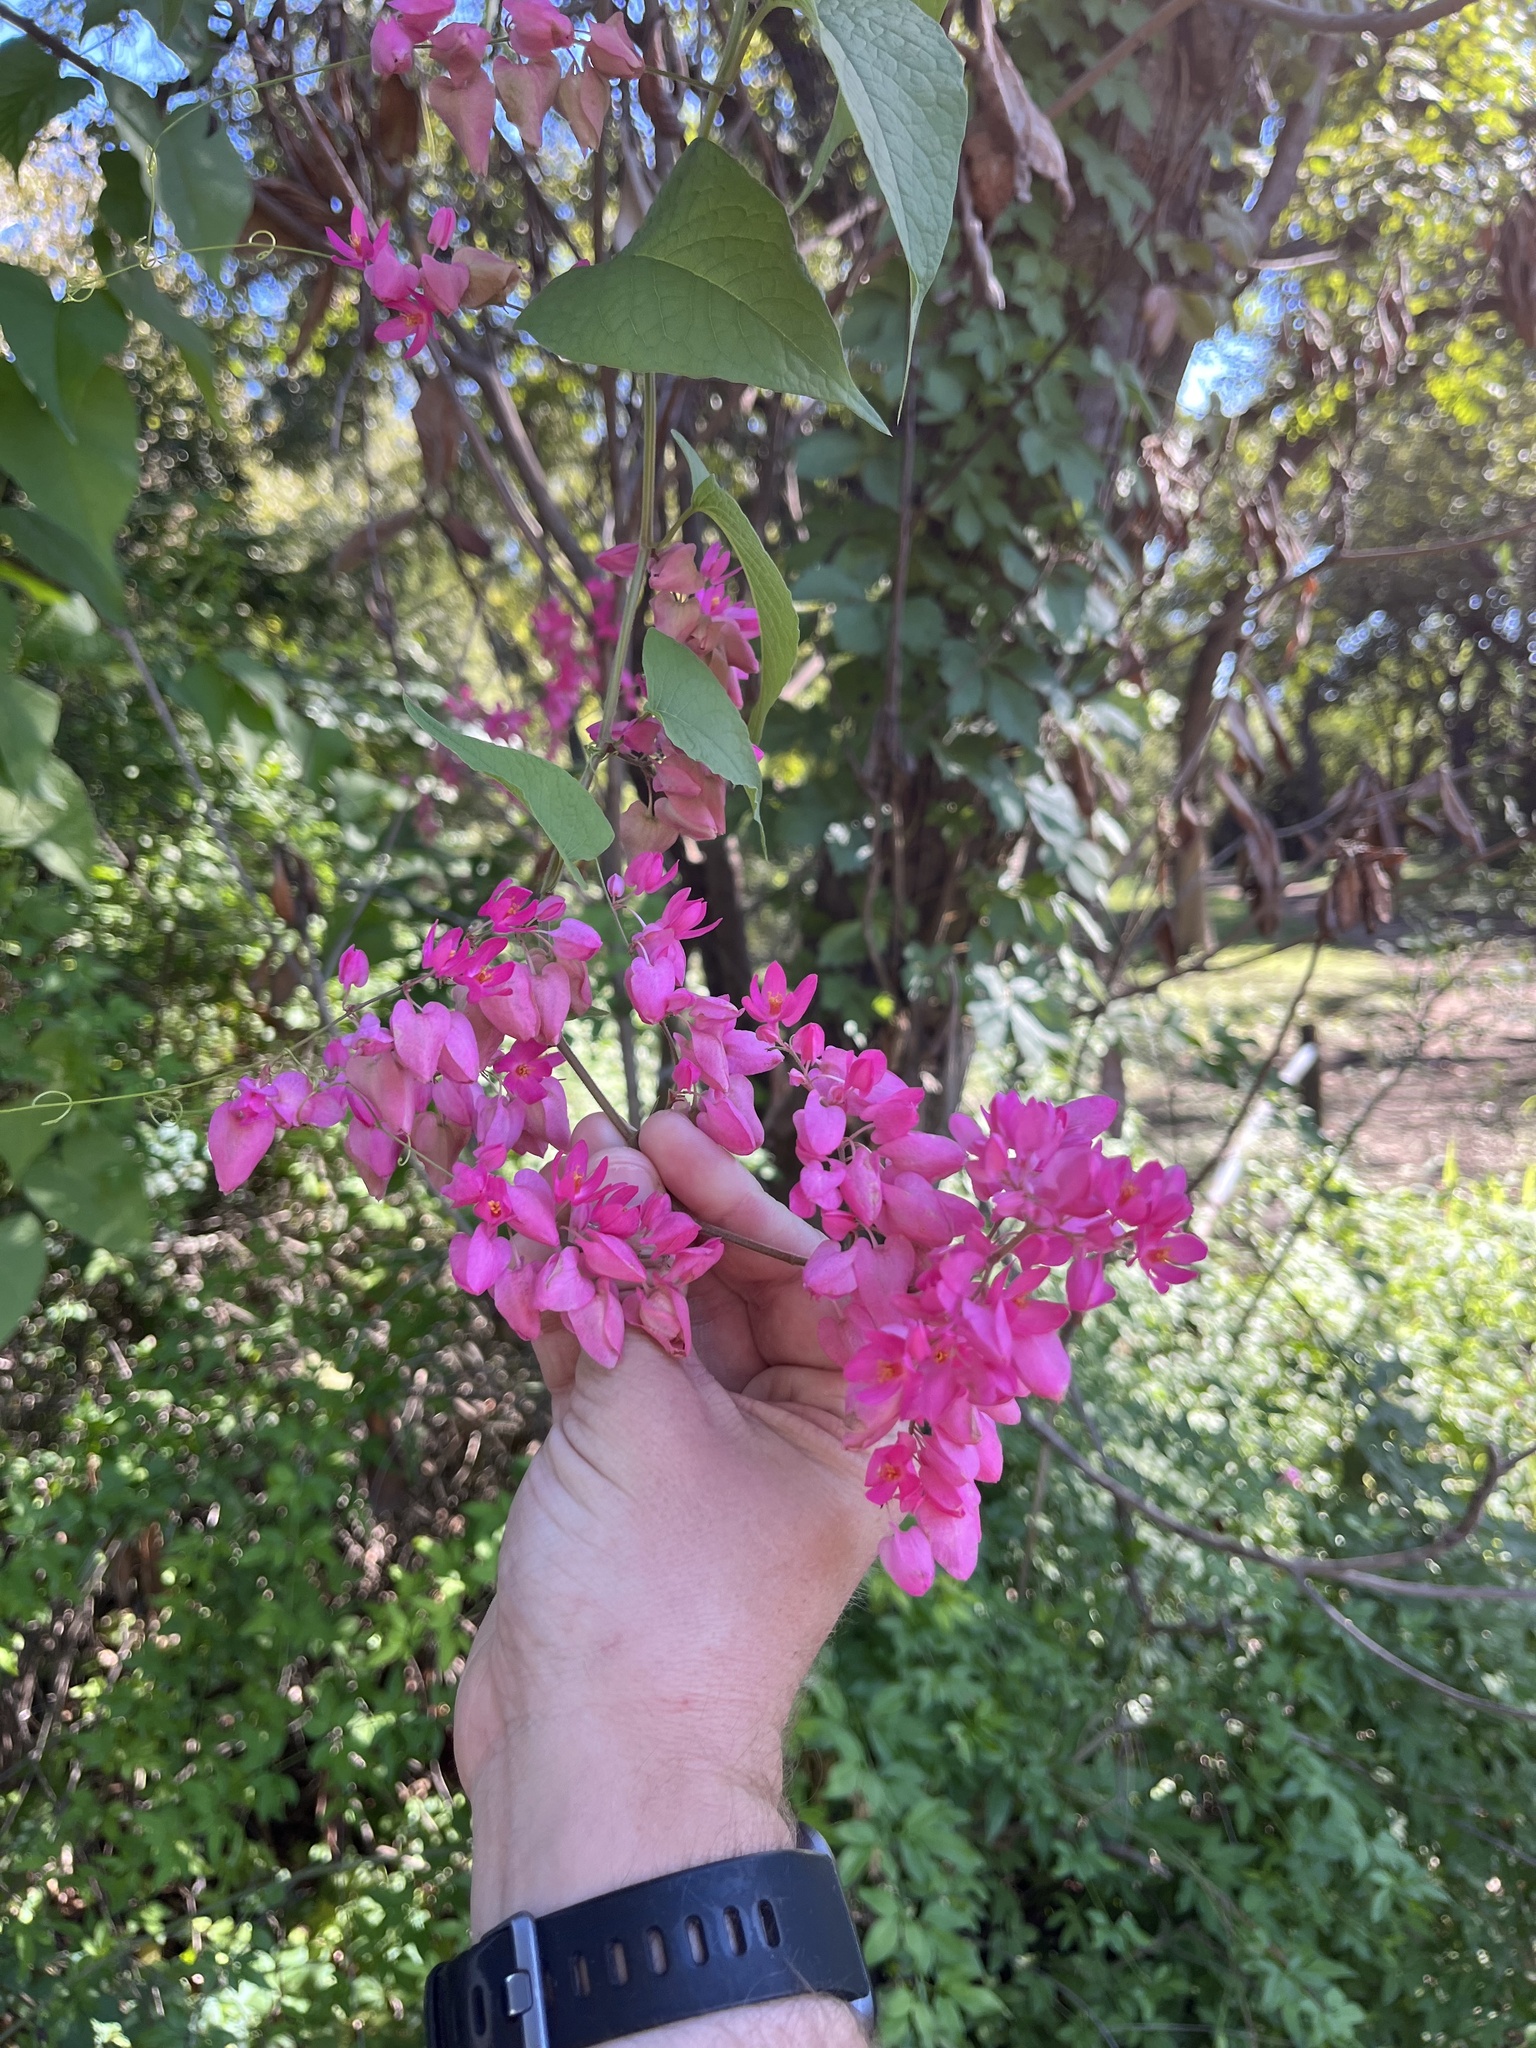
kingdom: Plantae
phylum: Tracheophyta
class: Magnoliopsida
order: Caryophyllales
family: Polygonaceae
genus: Antigonon
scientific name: Antigonon leptopus
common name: Coral vine
